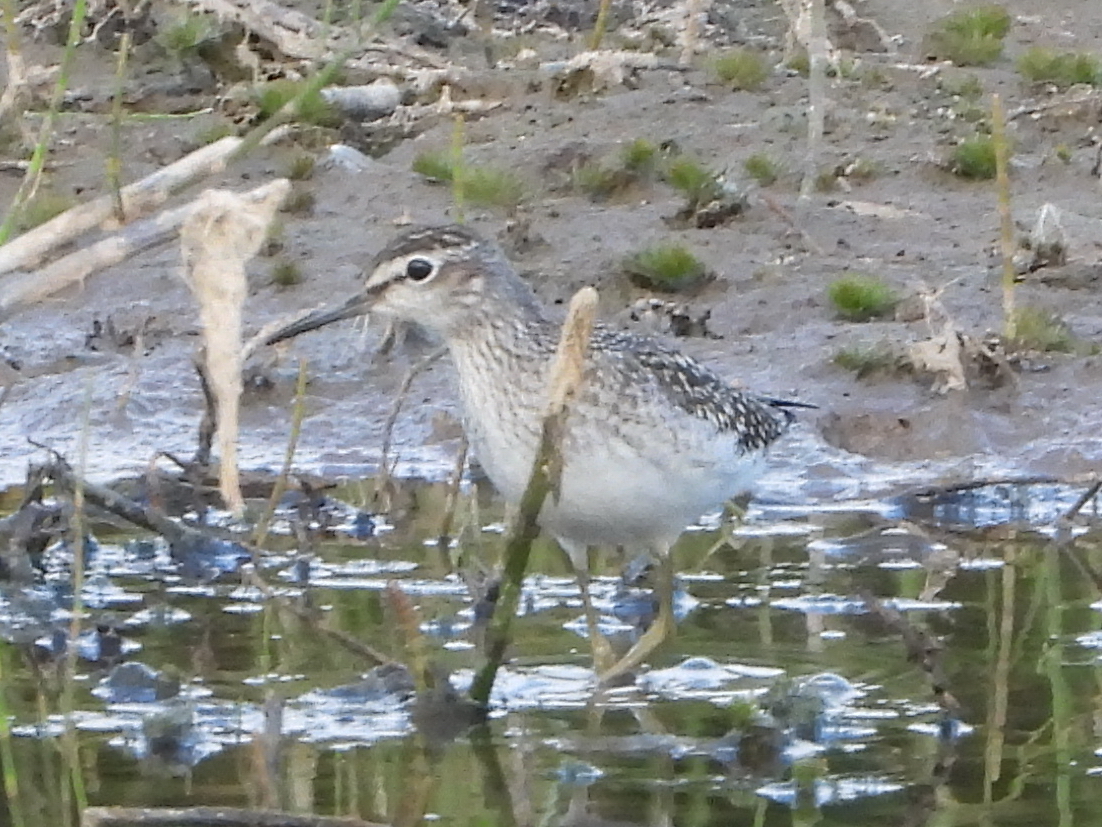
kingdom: Animalia
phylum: Chordata
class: Aves
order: Charadriiformes
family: Scolopacidae
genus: Tringa
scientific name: Tringa glareola
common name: Wood sandpiper
